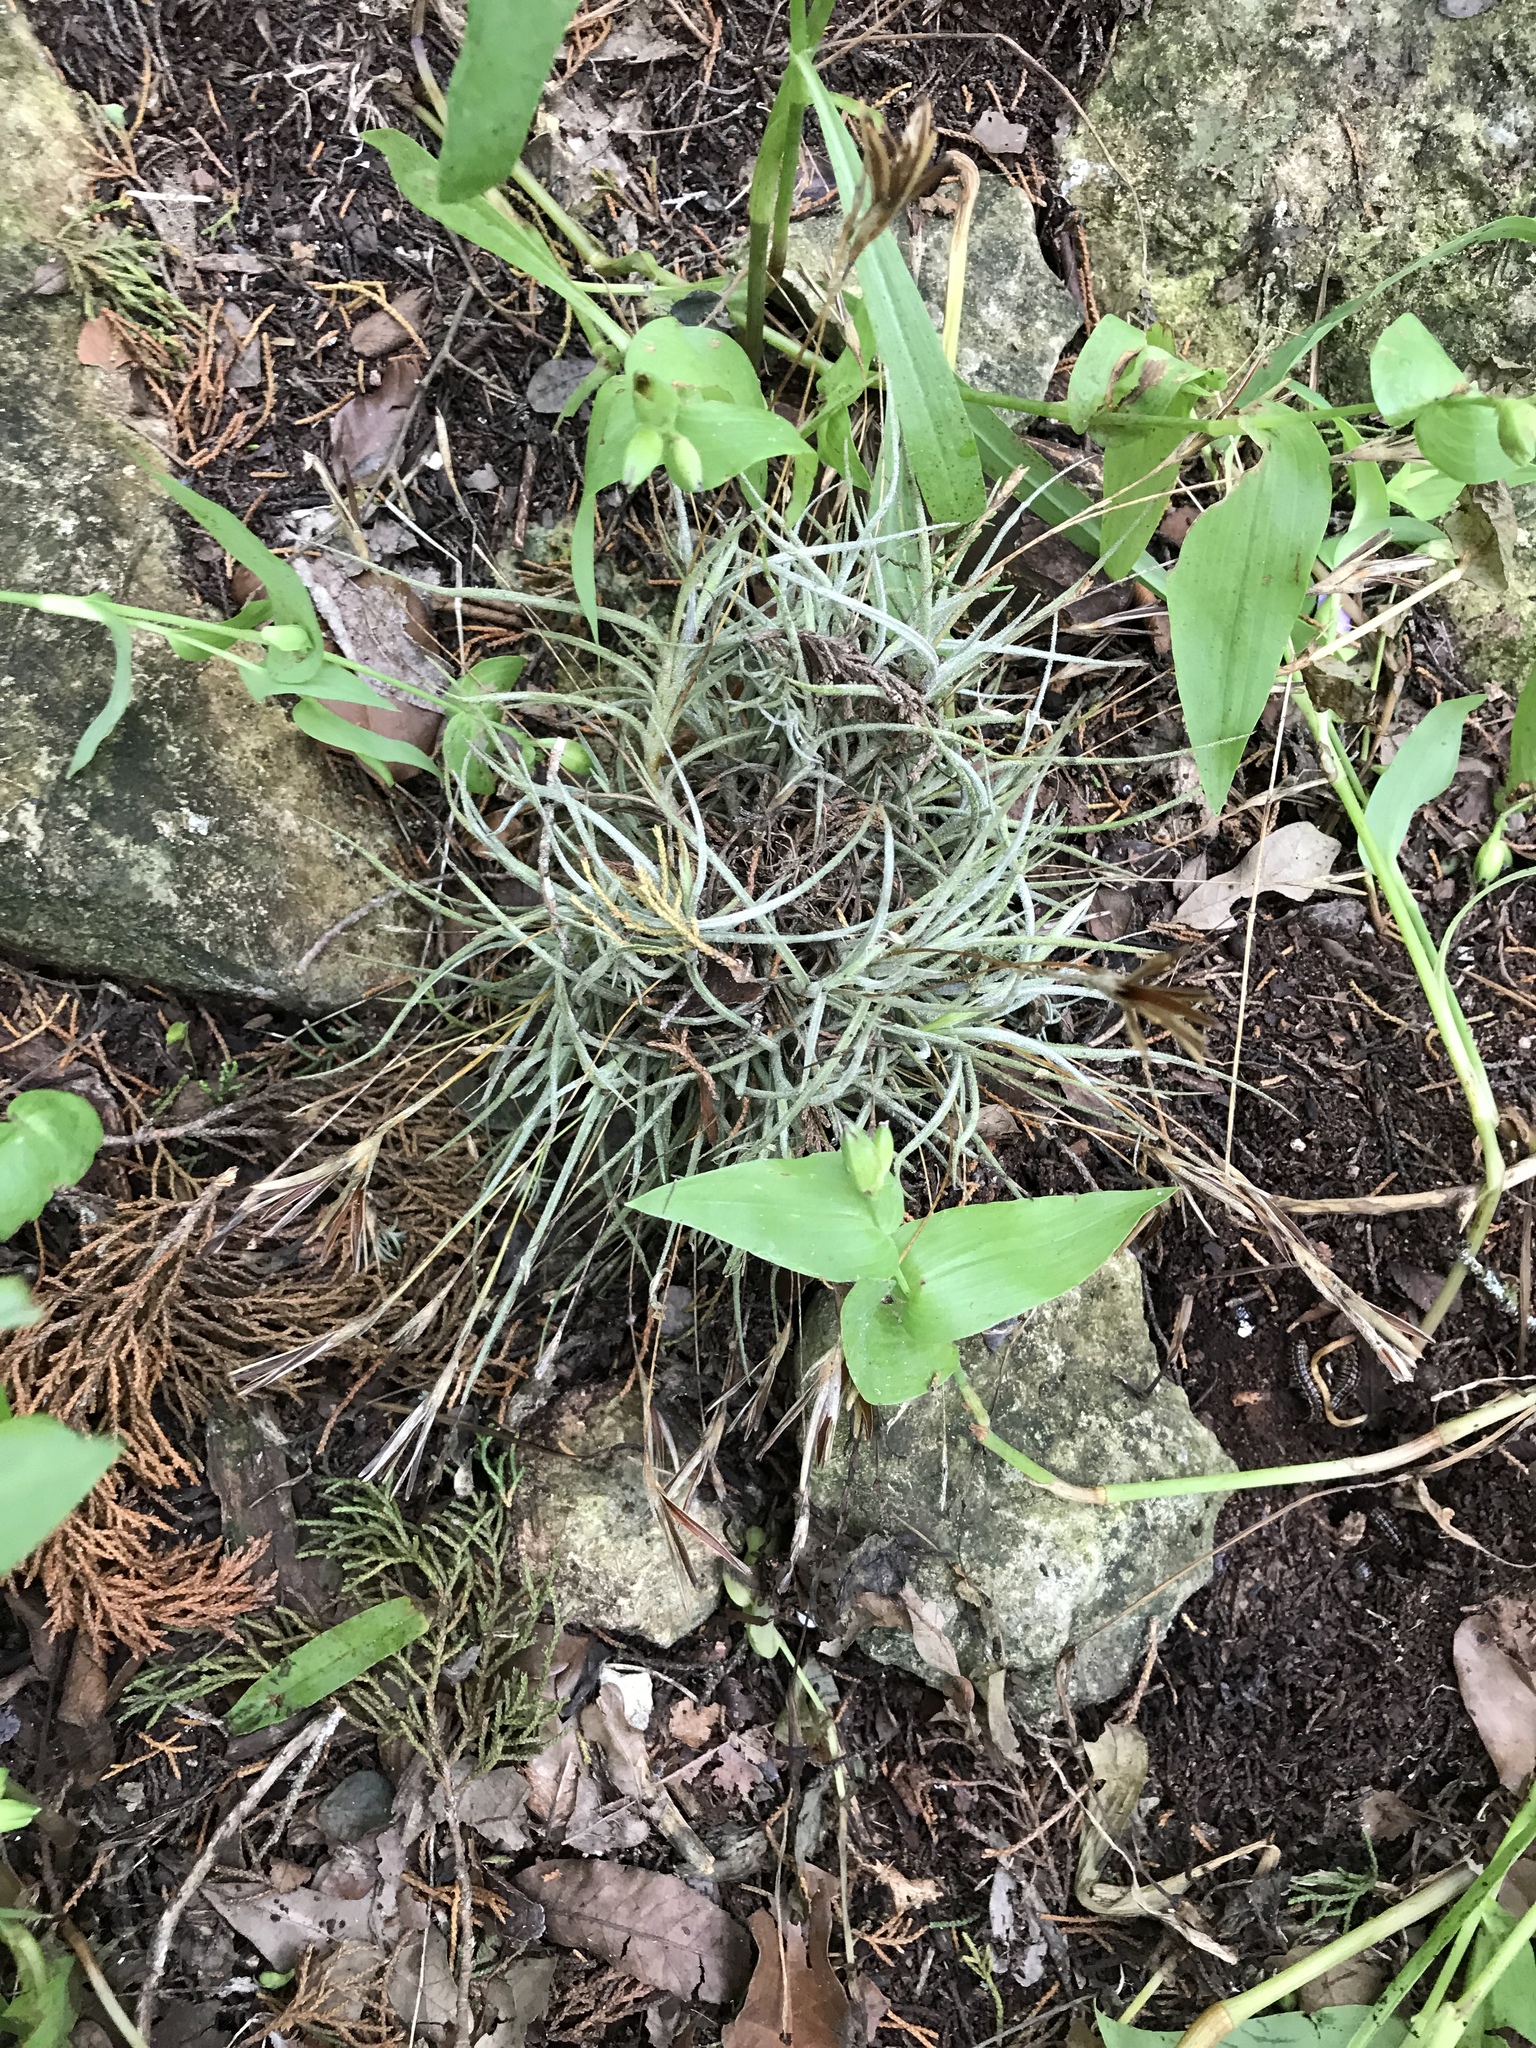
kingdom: Plantae
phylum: Tracheophyta
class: Liliopsida
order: Poales
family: Bromeliaceae
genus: Tillandsia
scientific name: Tillandsia recurvata
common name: Small ballmoss
